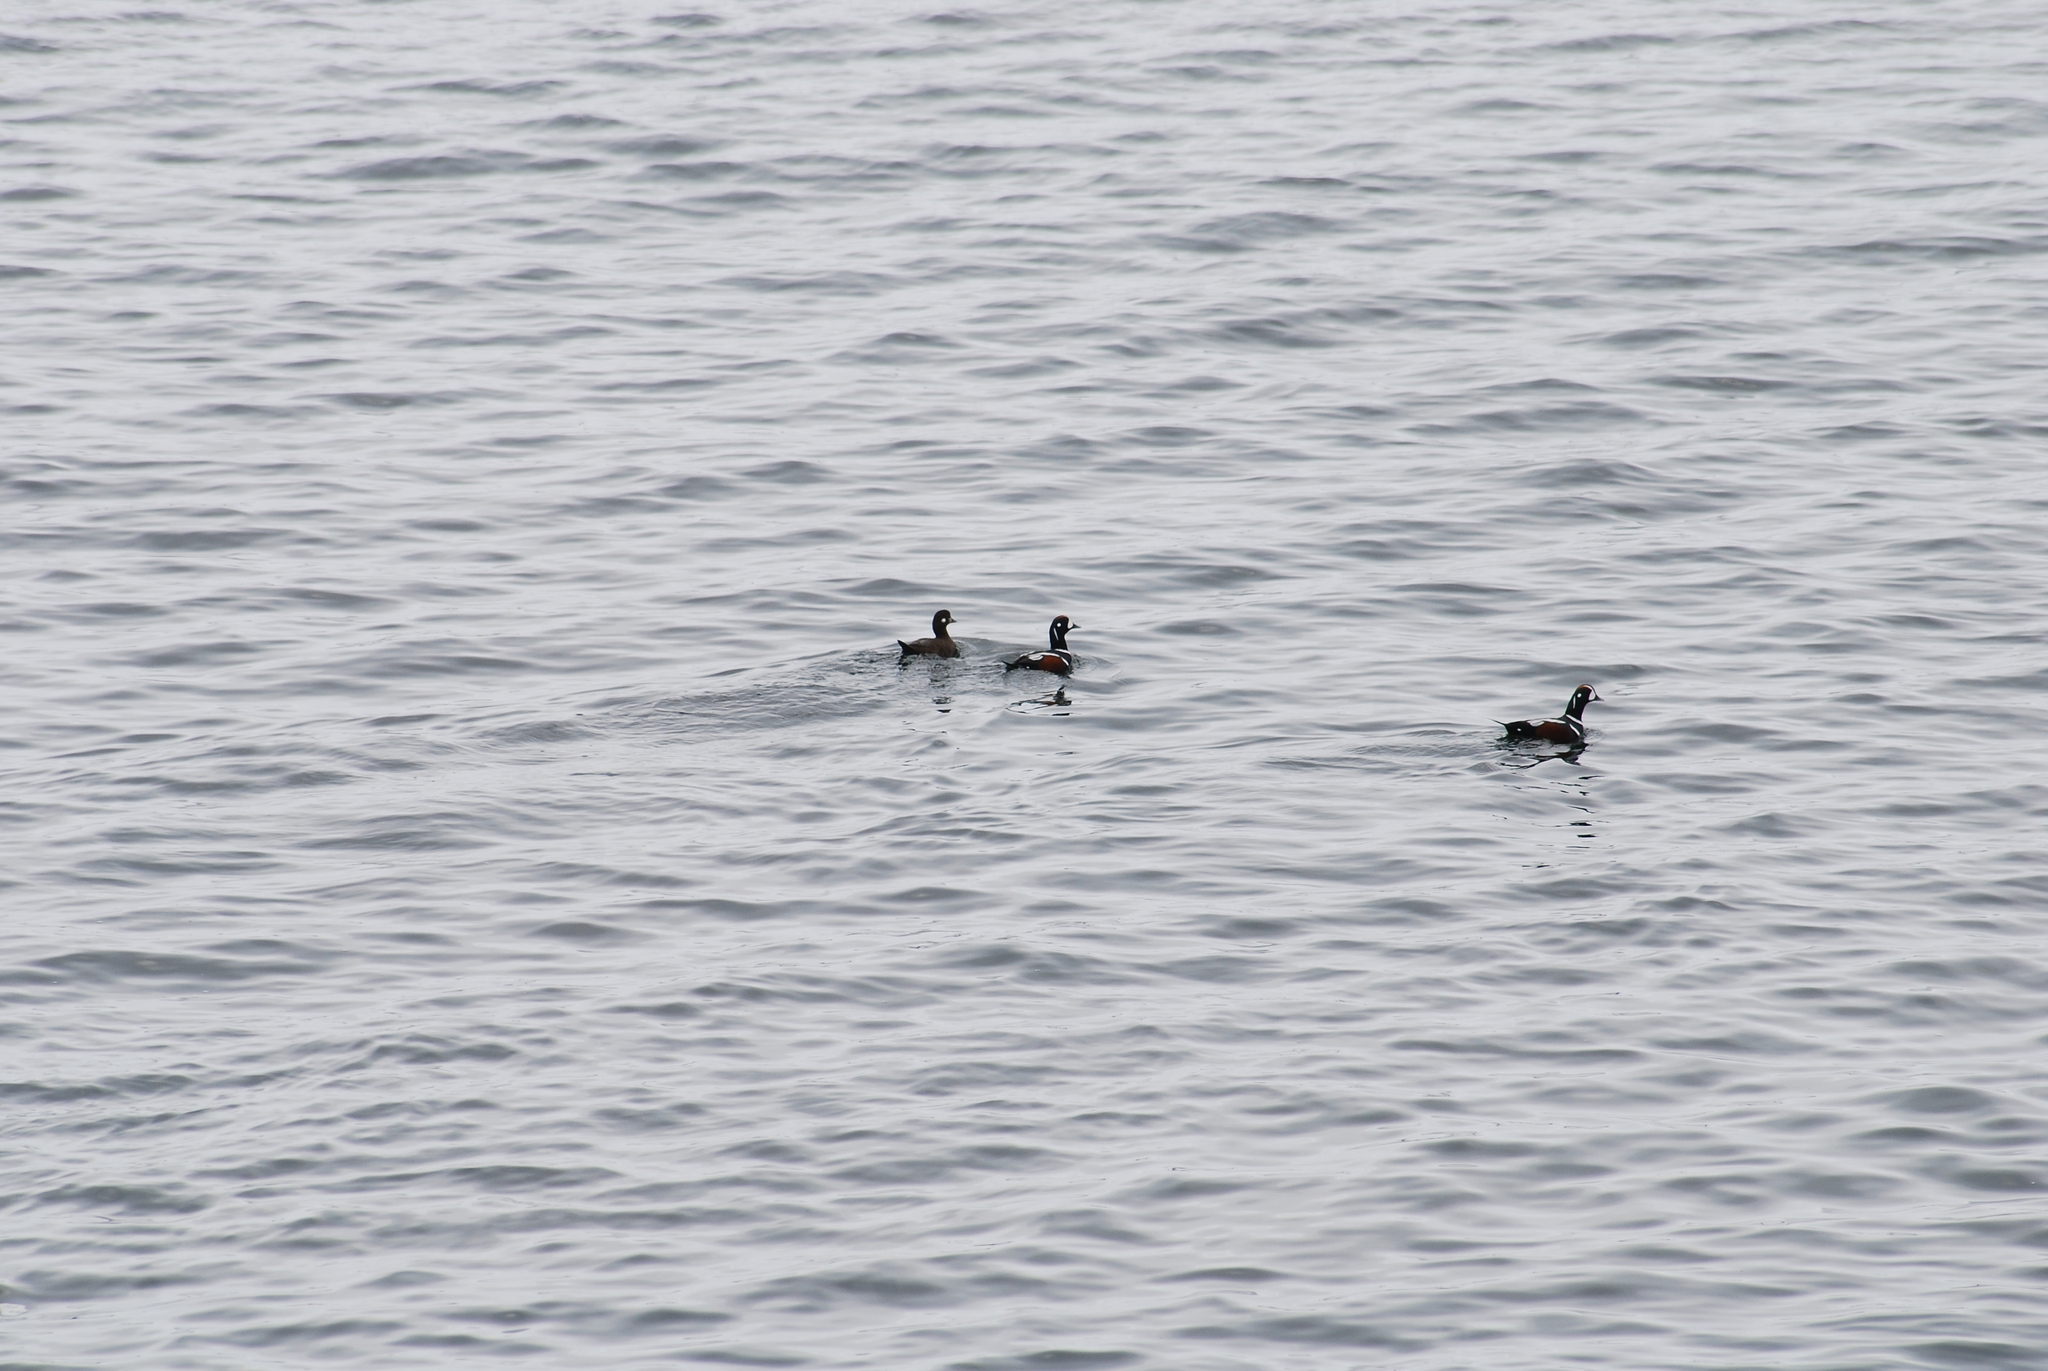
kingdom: Animalia
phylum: Chordata
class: Aves
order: Anseriformes
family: Anatidae
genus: Histrionicus
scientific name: Histrionicus histrionicus
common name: Harlequin duck
